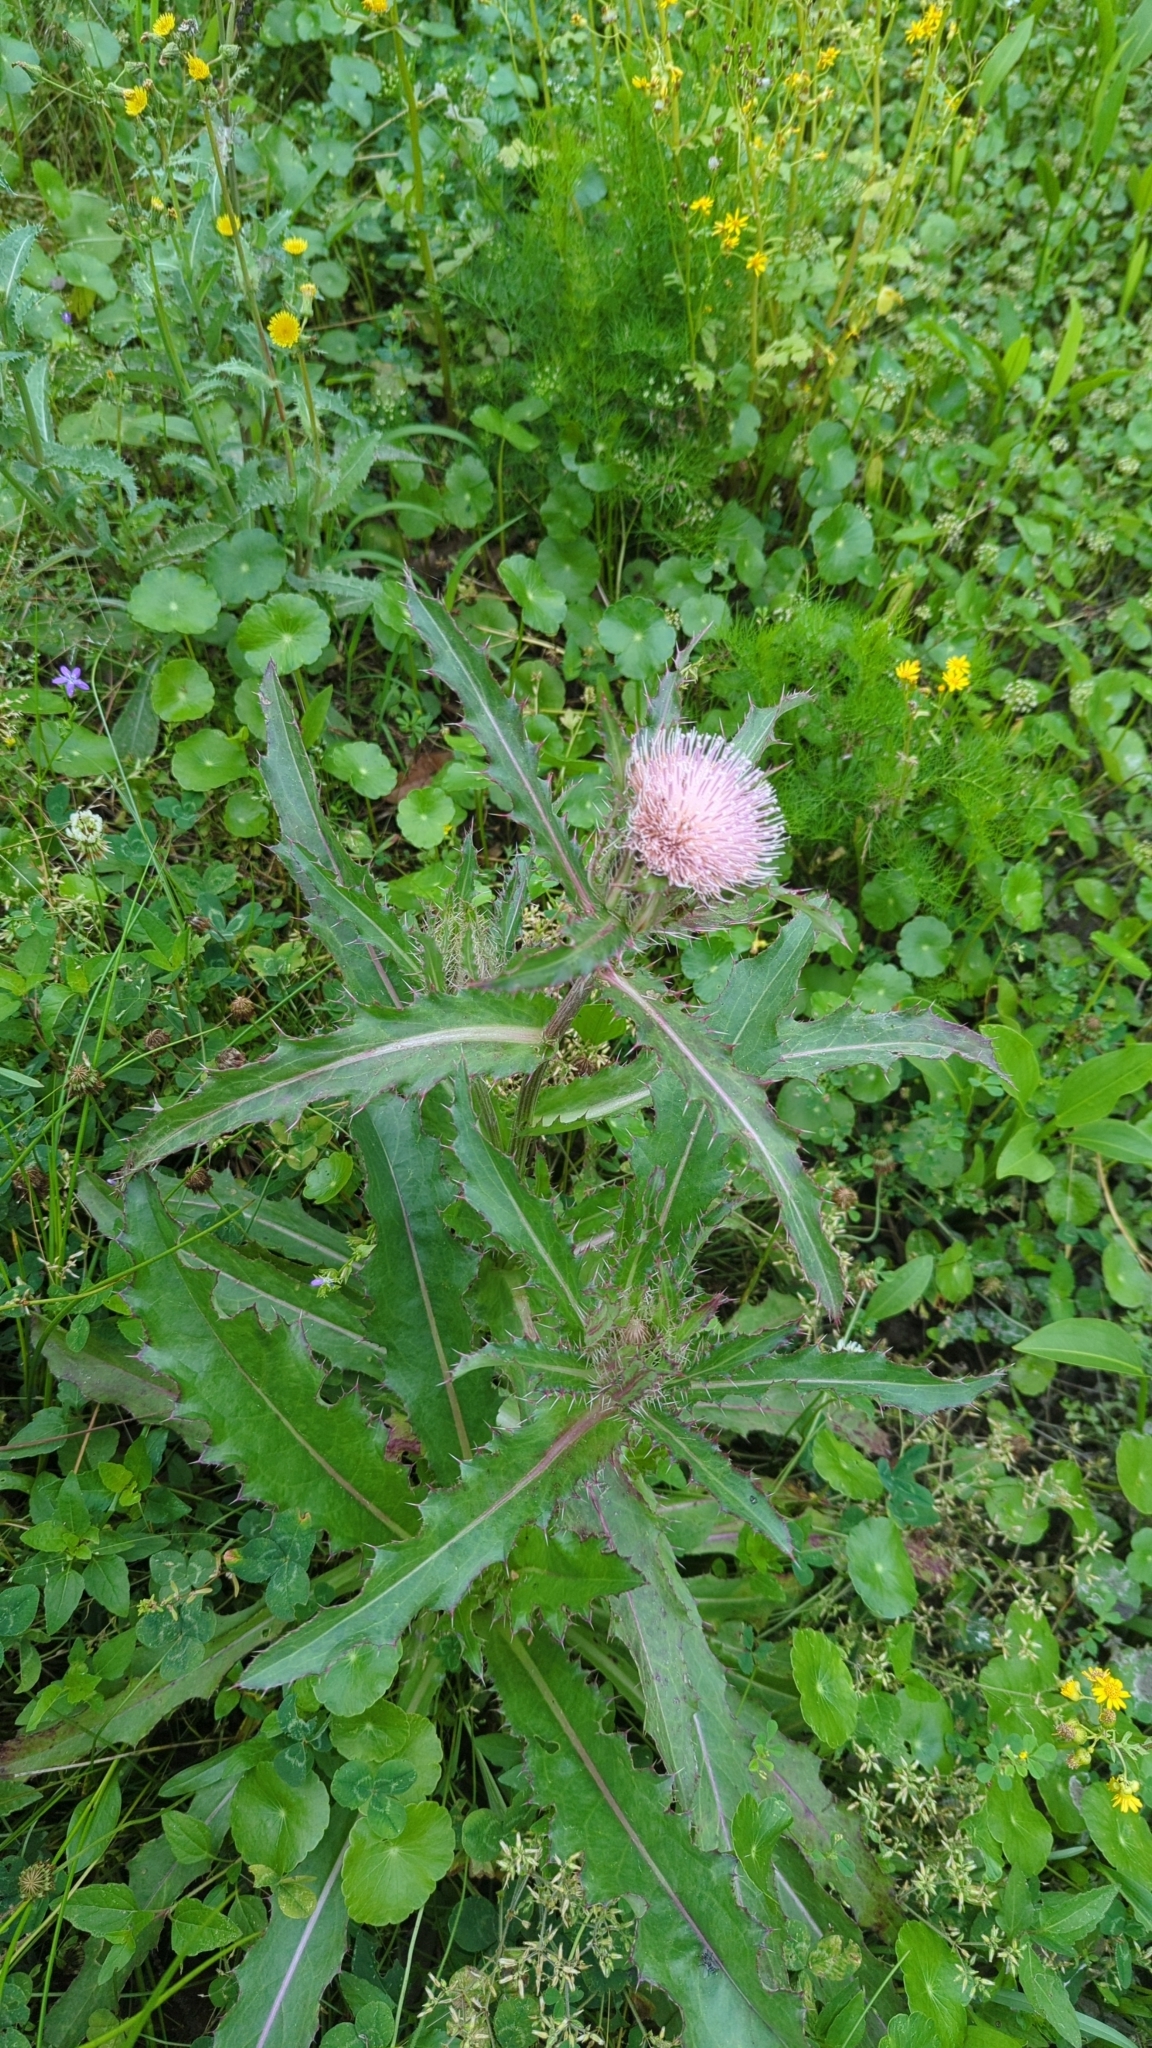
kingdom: Plantae
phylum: Tracheophyta
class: Magnoliopsida
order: Asterales
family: Asteraceae
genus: Cirsium
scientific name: Cirsium horridulum
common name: Bristly thistle
